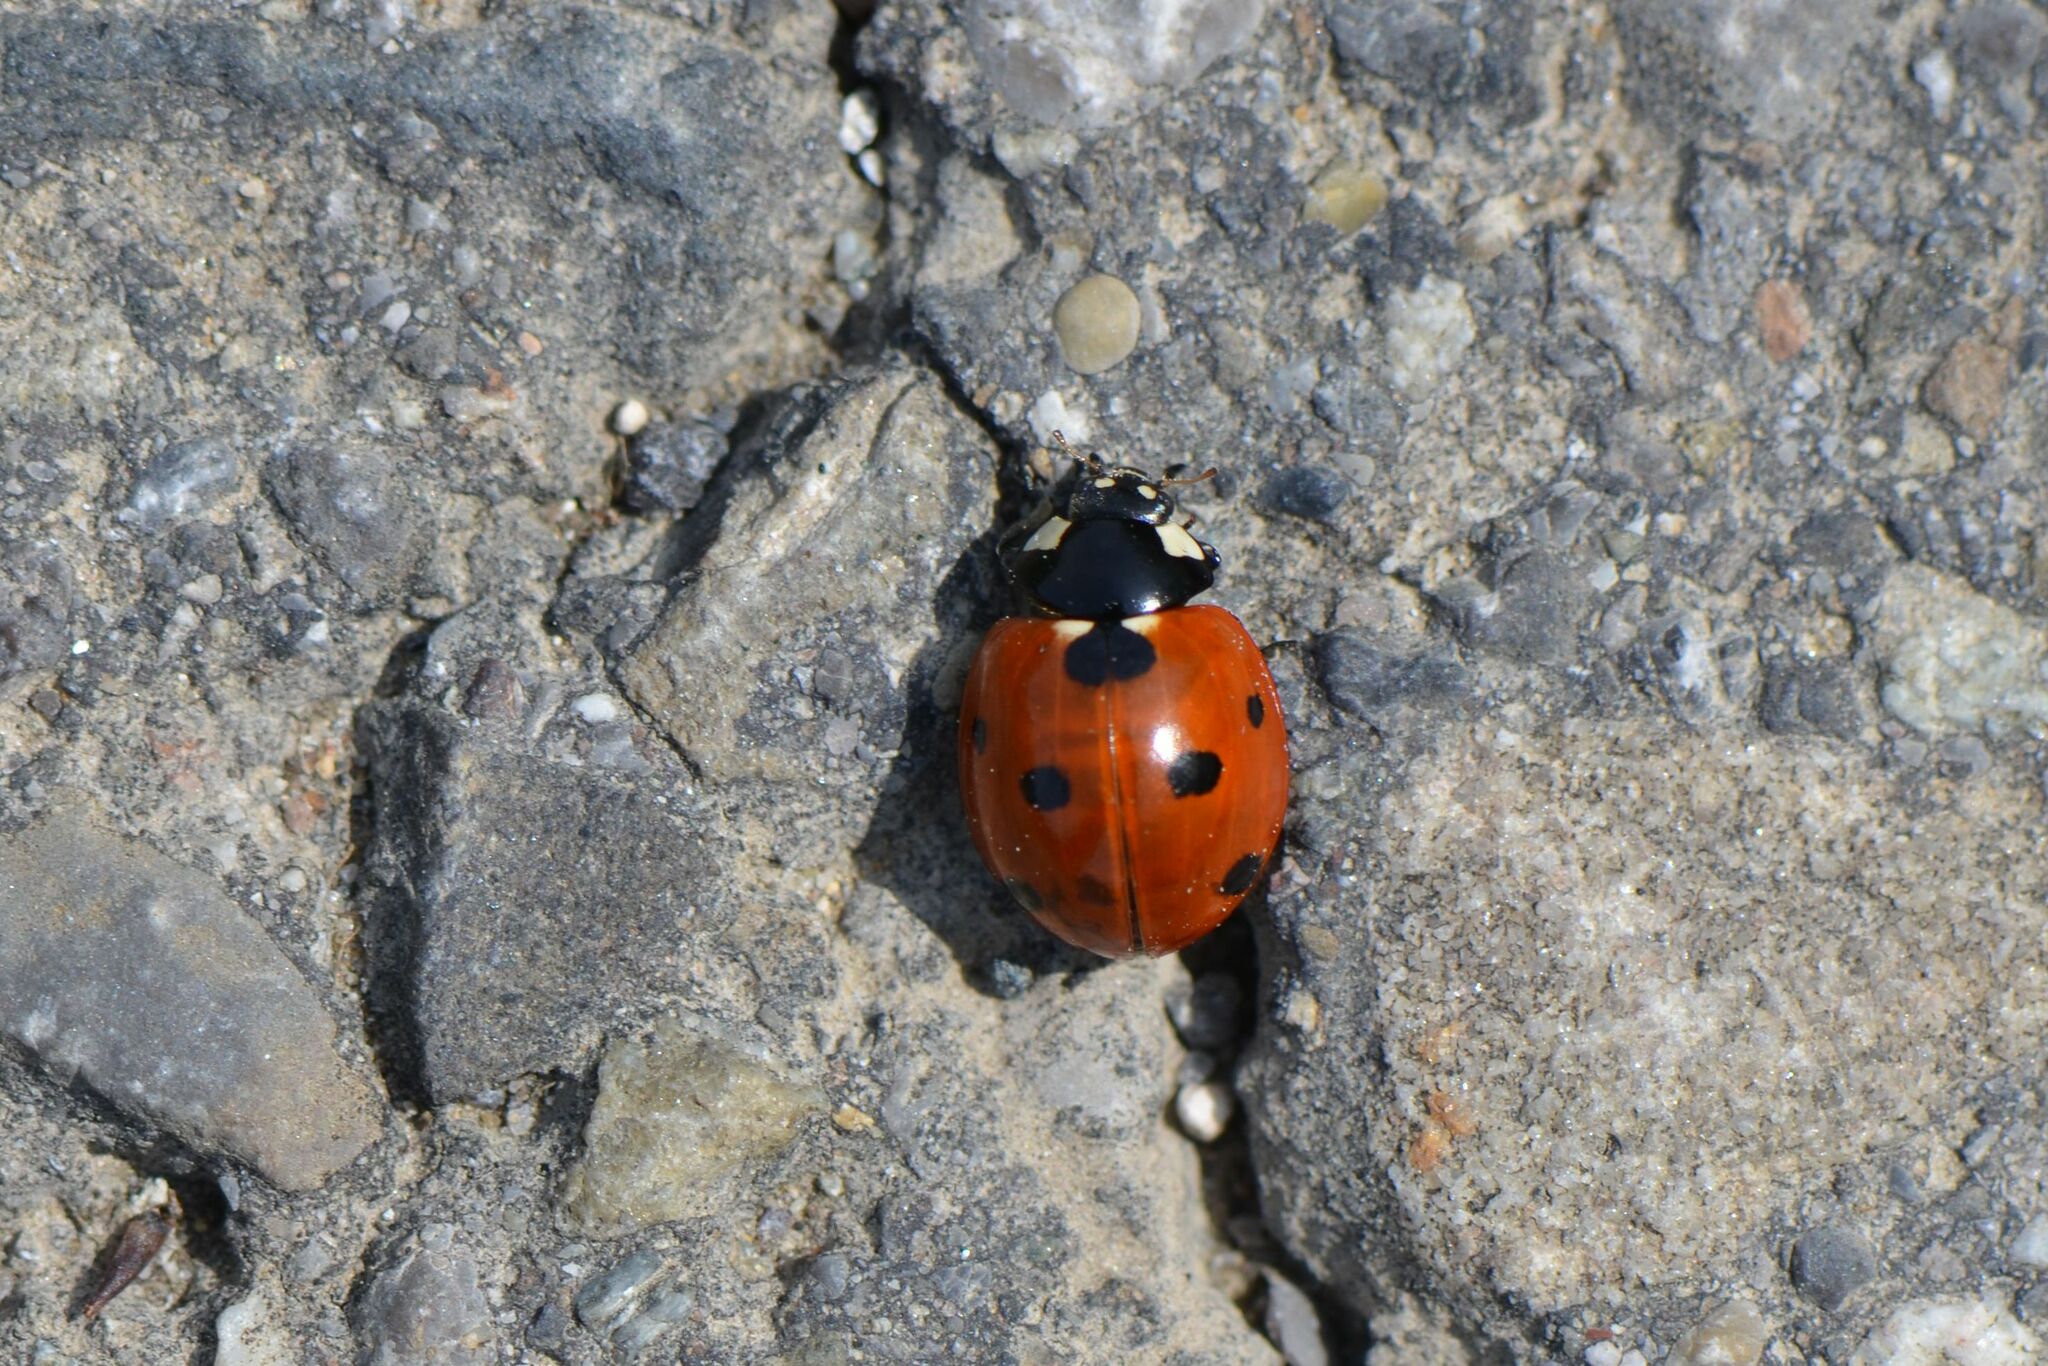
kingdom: Animalia
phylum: Arthropoda
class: Insecta
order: Coleoptera
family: Coccinellidae
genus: Coccinella
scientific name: Coccinella septempunctata
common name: Sevenspotted lady beetle
